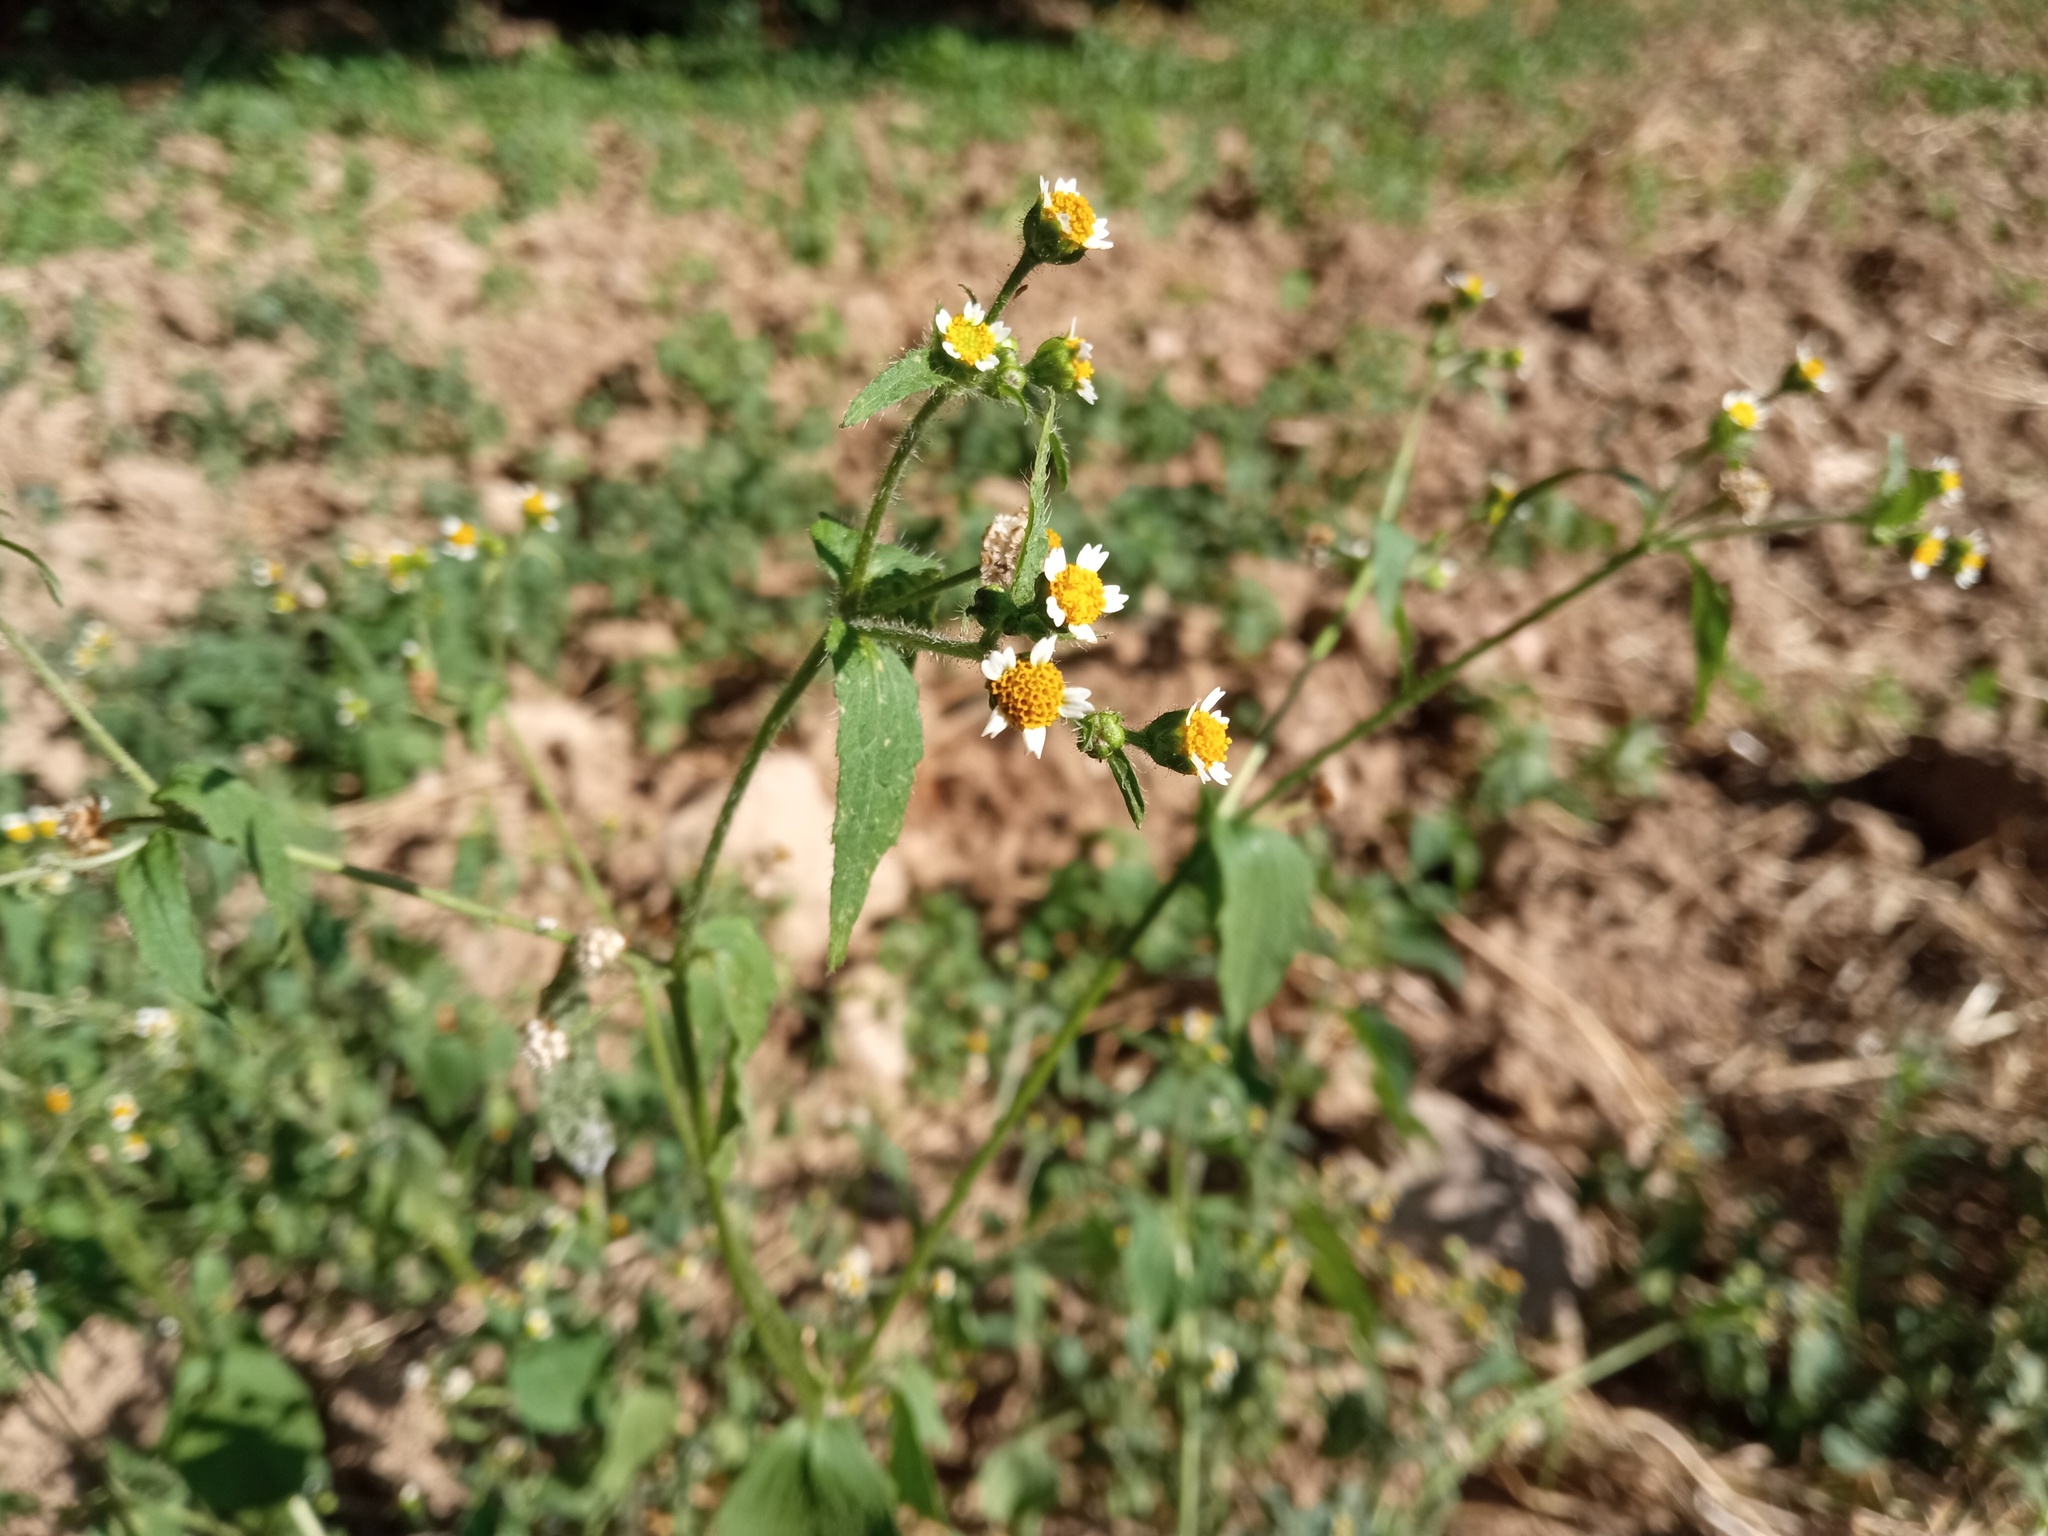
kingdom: Plantae
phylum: Tracheophyta
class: Magnoliopsida
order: Asterales
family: Asteraceae
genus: Galinsoga
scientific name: Galinsoga quadriradiata
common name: Shaggy soldier
